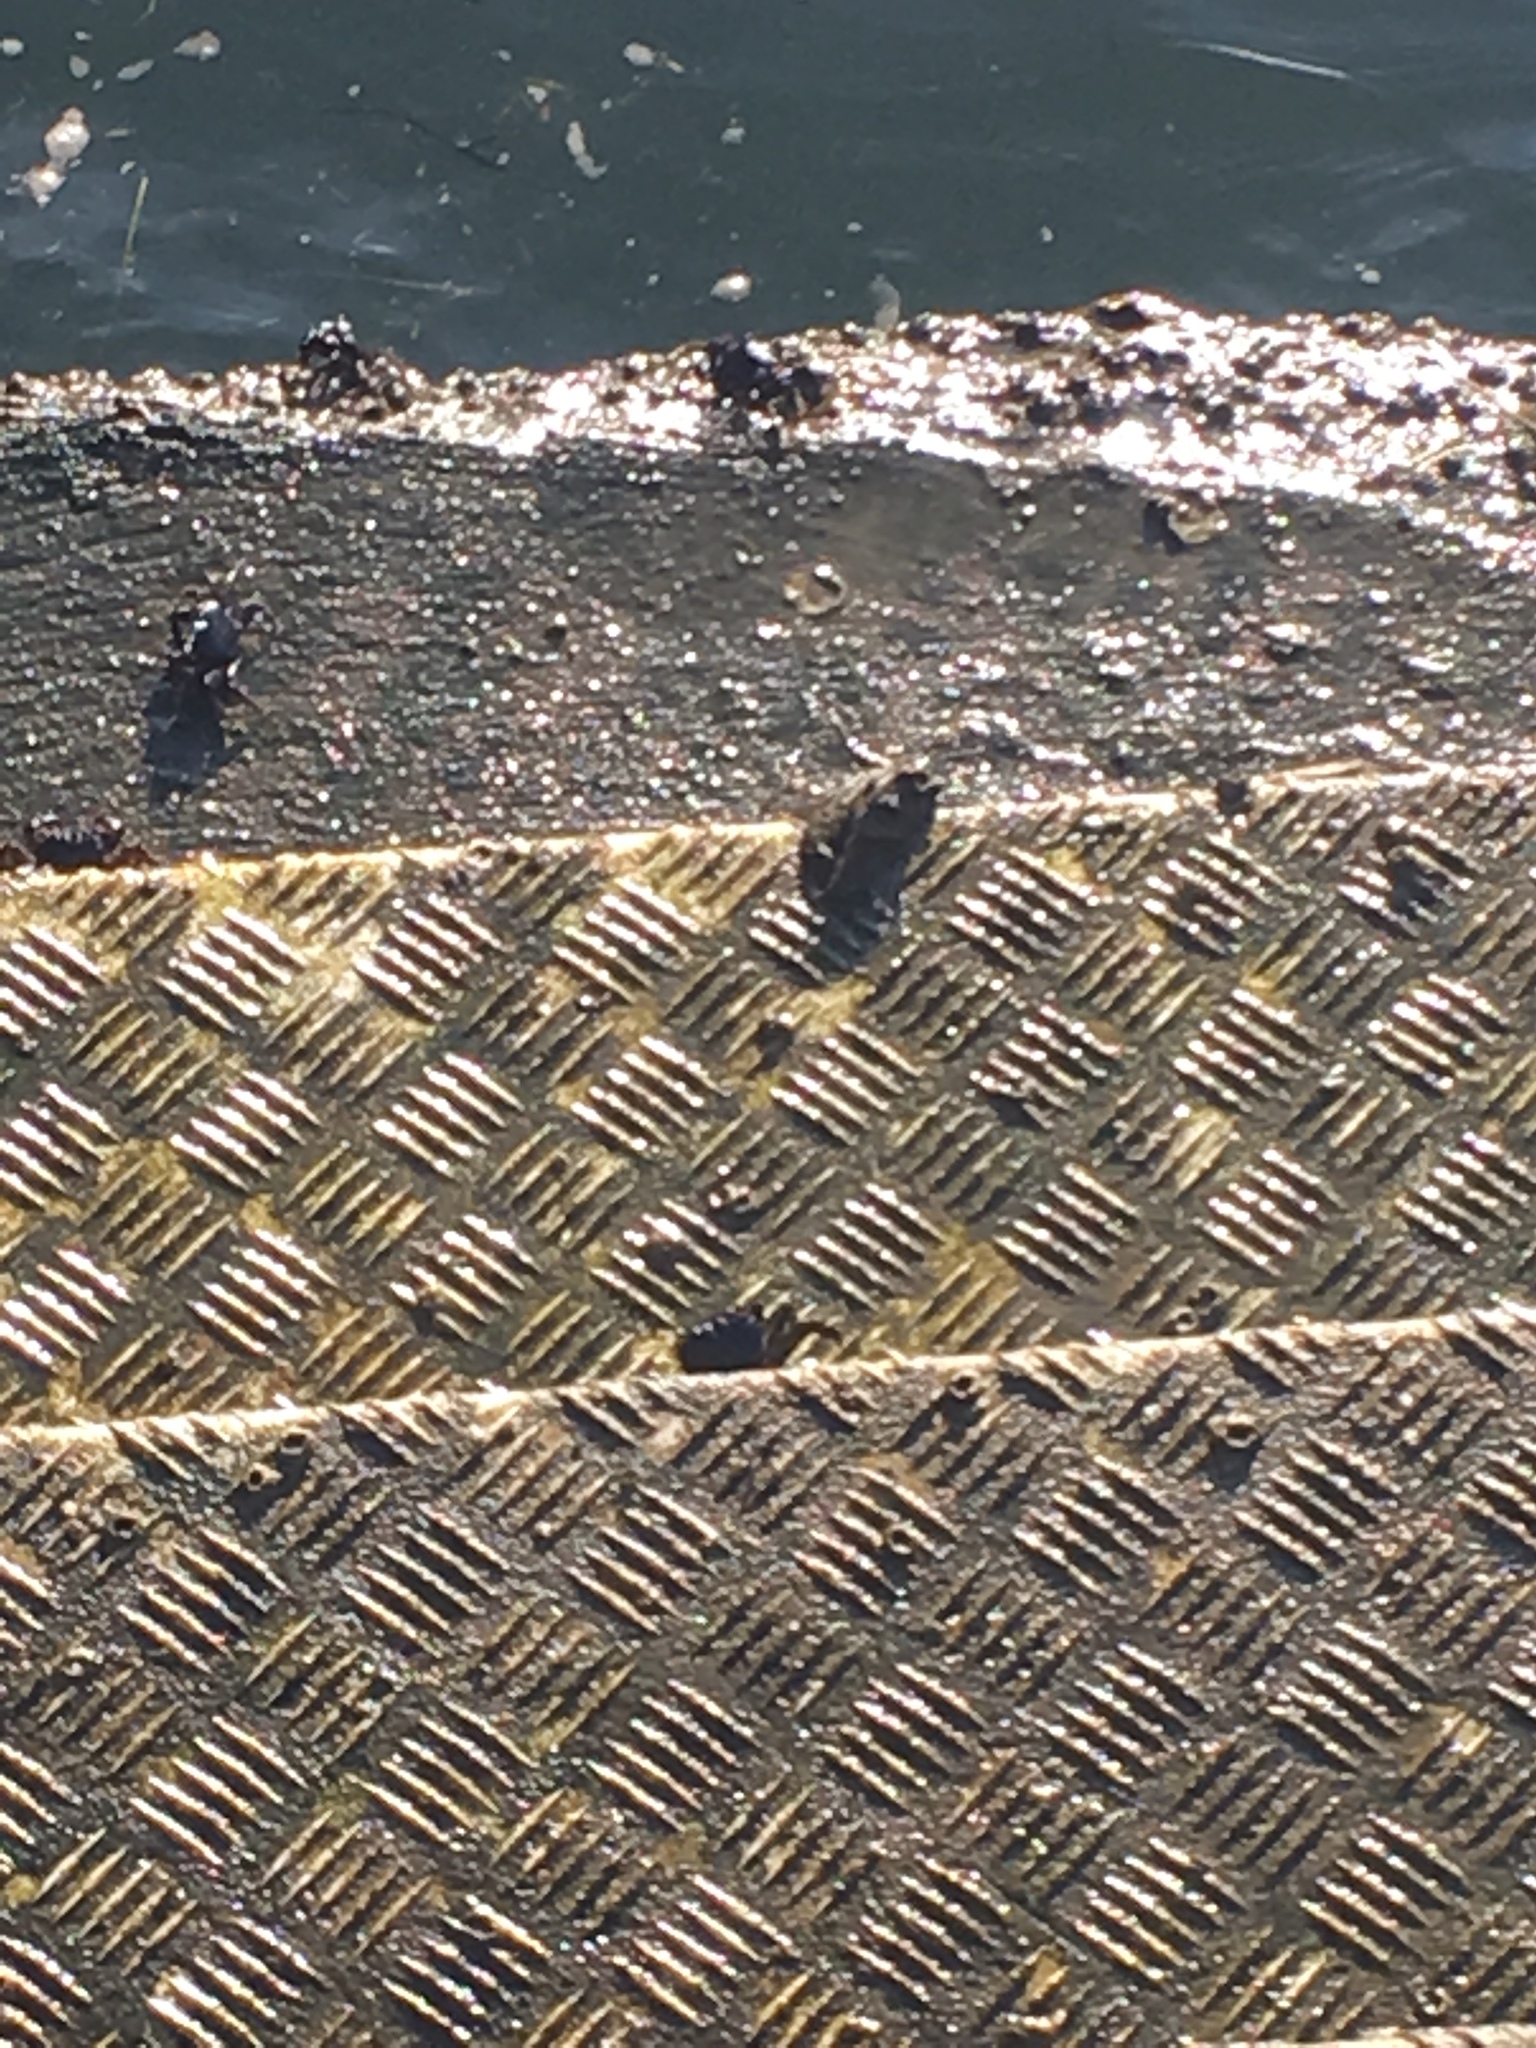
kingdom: Animalia
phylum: Arthropoda
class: Malacostraca
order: Decapoda
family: Grapsidae
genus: Pachygrapsus
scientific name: Pachygrapsus marmoratus
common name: Marbled rock crab
